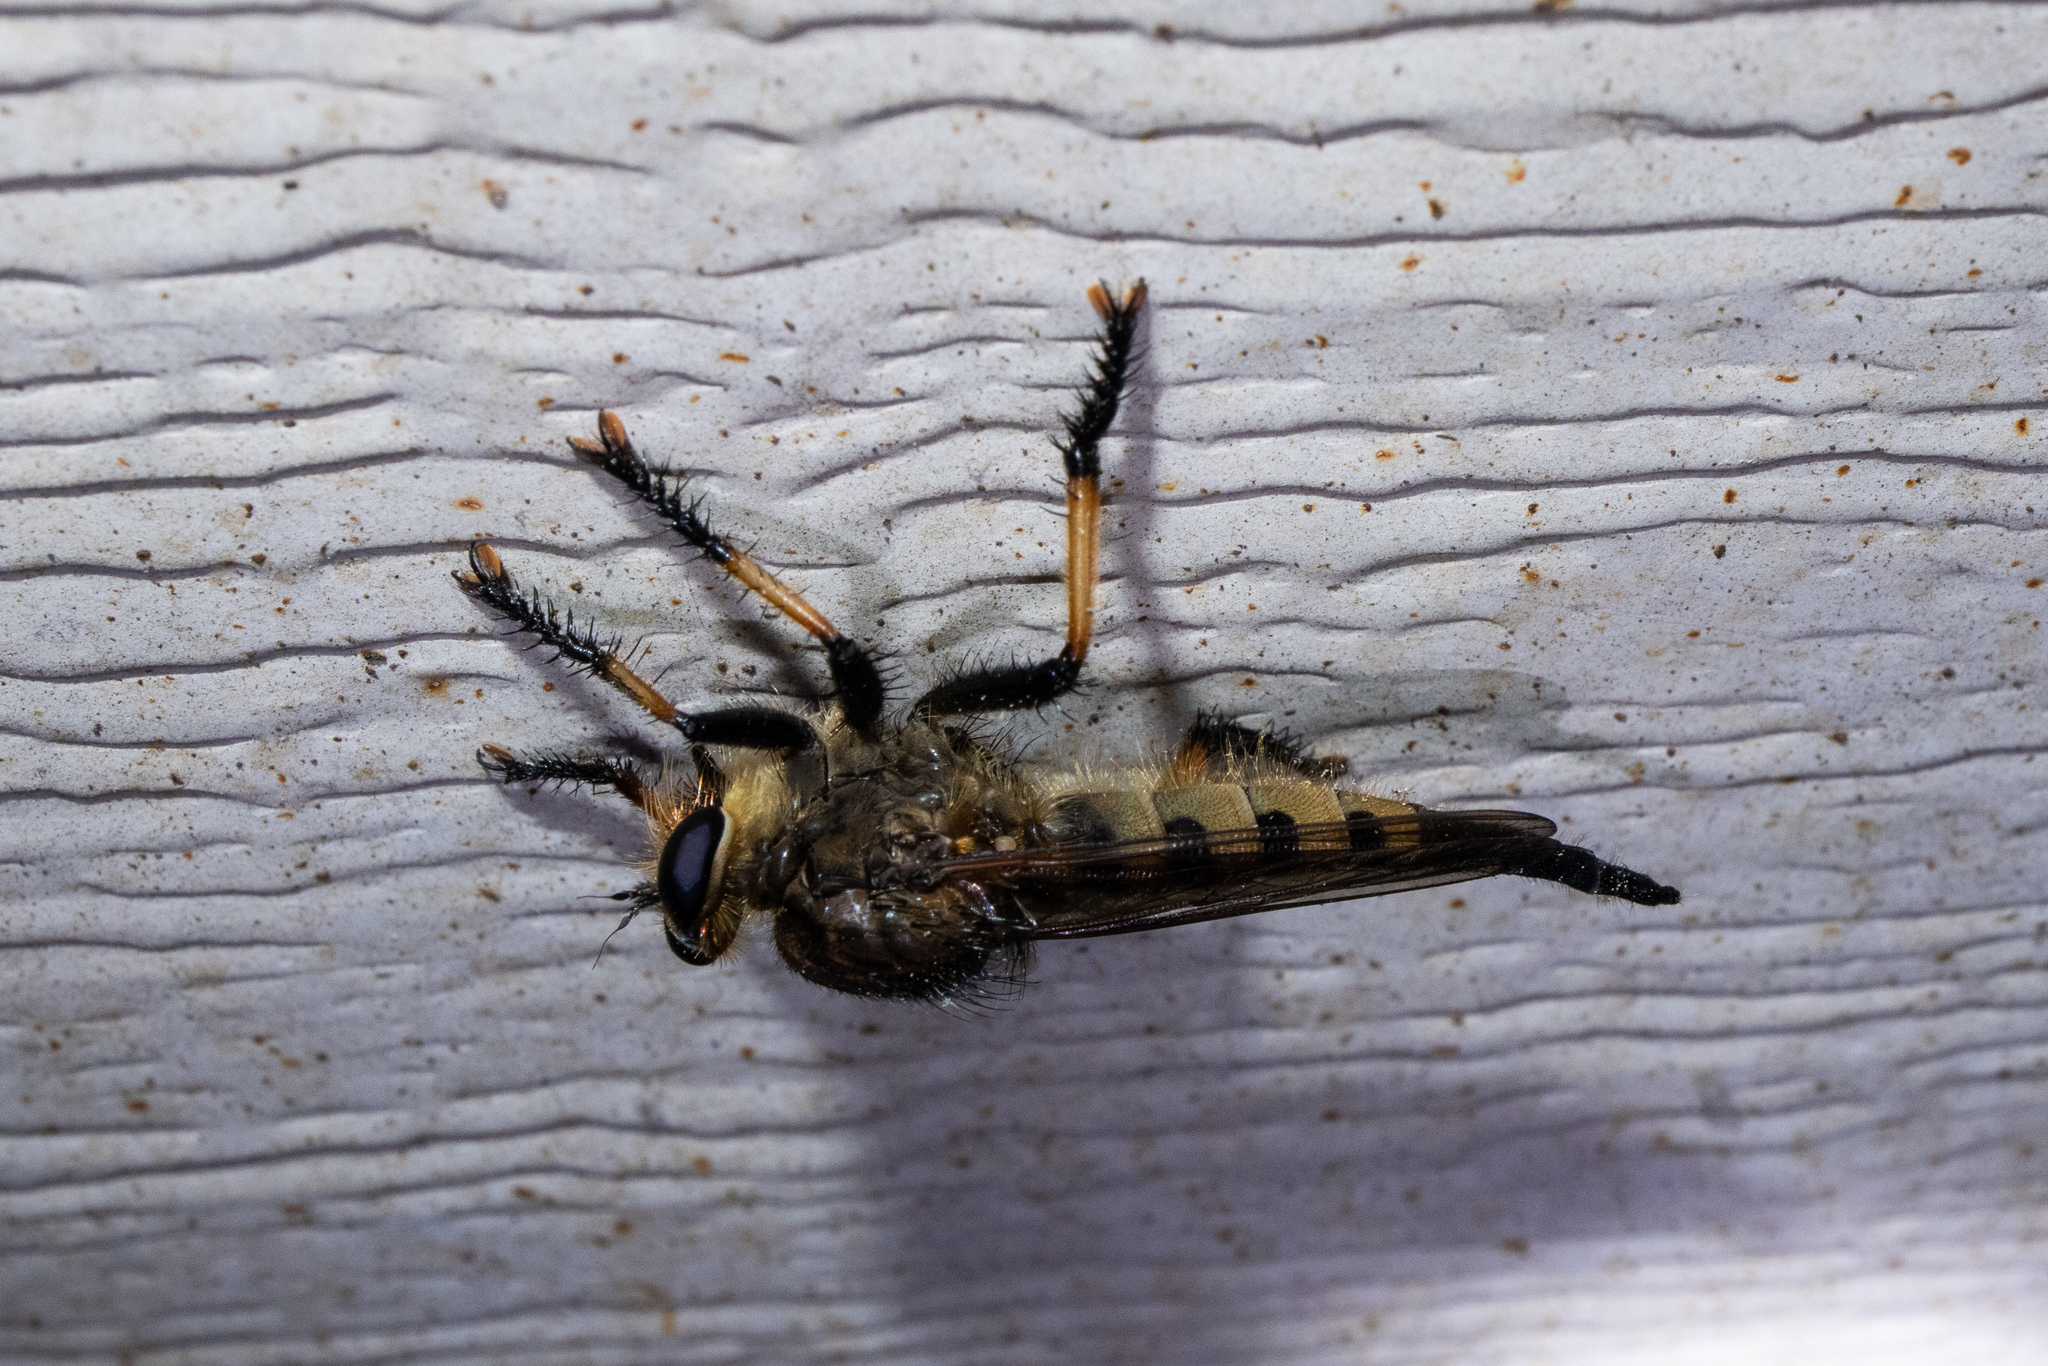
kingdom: Animalia
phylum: Arthropoda
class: Insecta
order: Diptera
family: Asilidae
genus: Promachus
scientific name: Promachus rufipes
